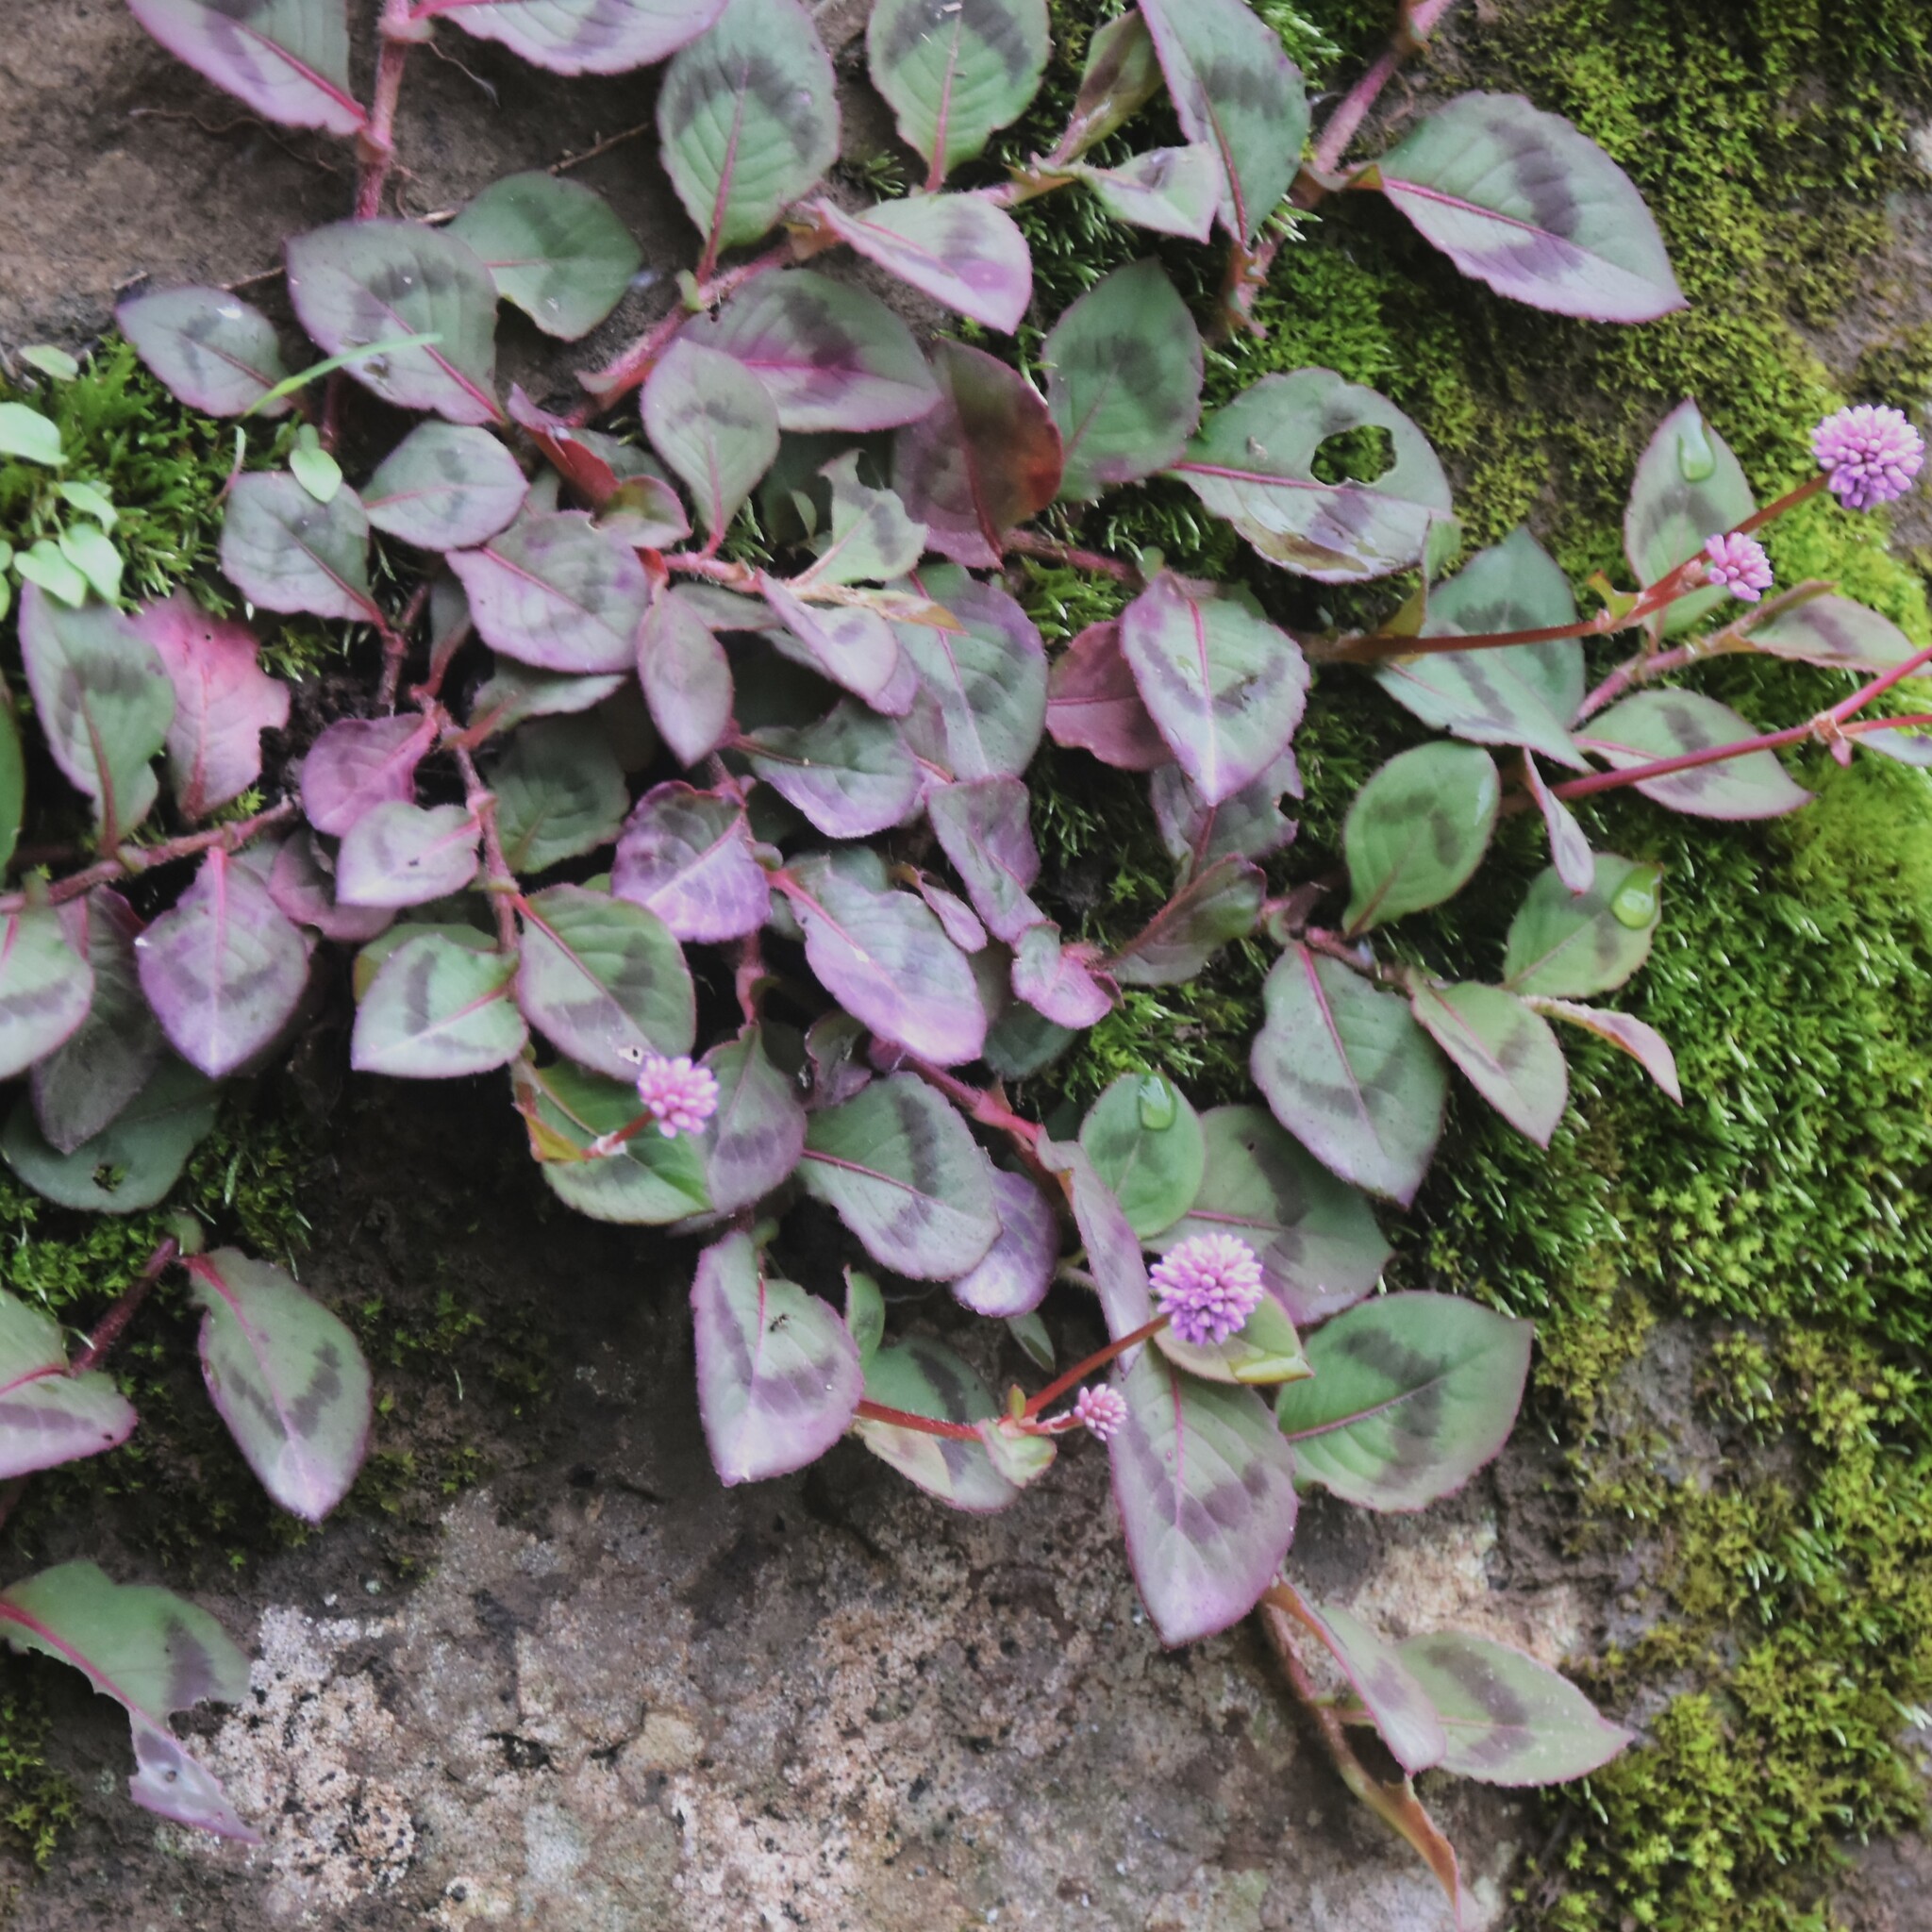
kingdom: Plantae
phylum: Tracheophyta
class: Magnoliopsida
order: Caryophyllales
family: Polygonaceae
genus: Persicaria
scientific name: Persicaria capitata
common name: Pinkhead smartweed
